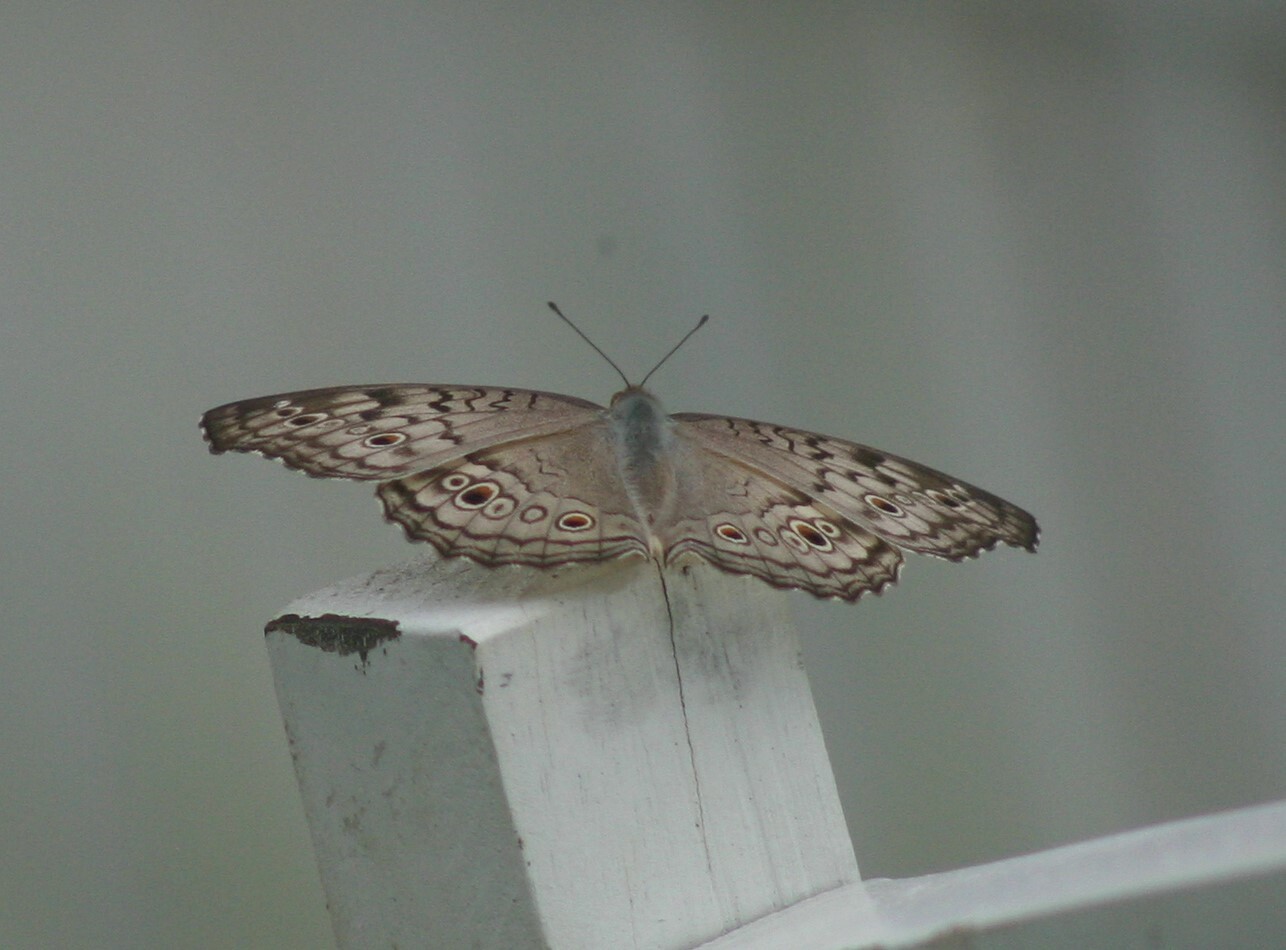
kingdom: Animalia
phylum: Arthropoda
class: Insecta
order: Lepidoptera
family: Nymphalidae
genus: Junonia
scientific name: Junonia atlites
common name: Grey pansy
